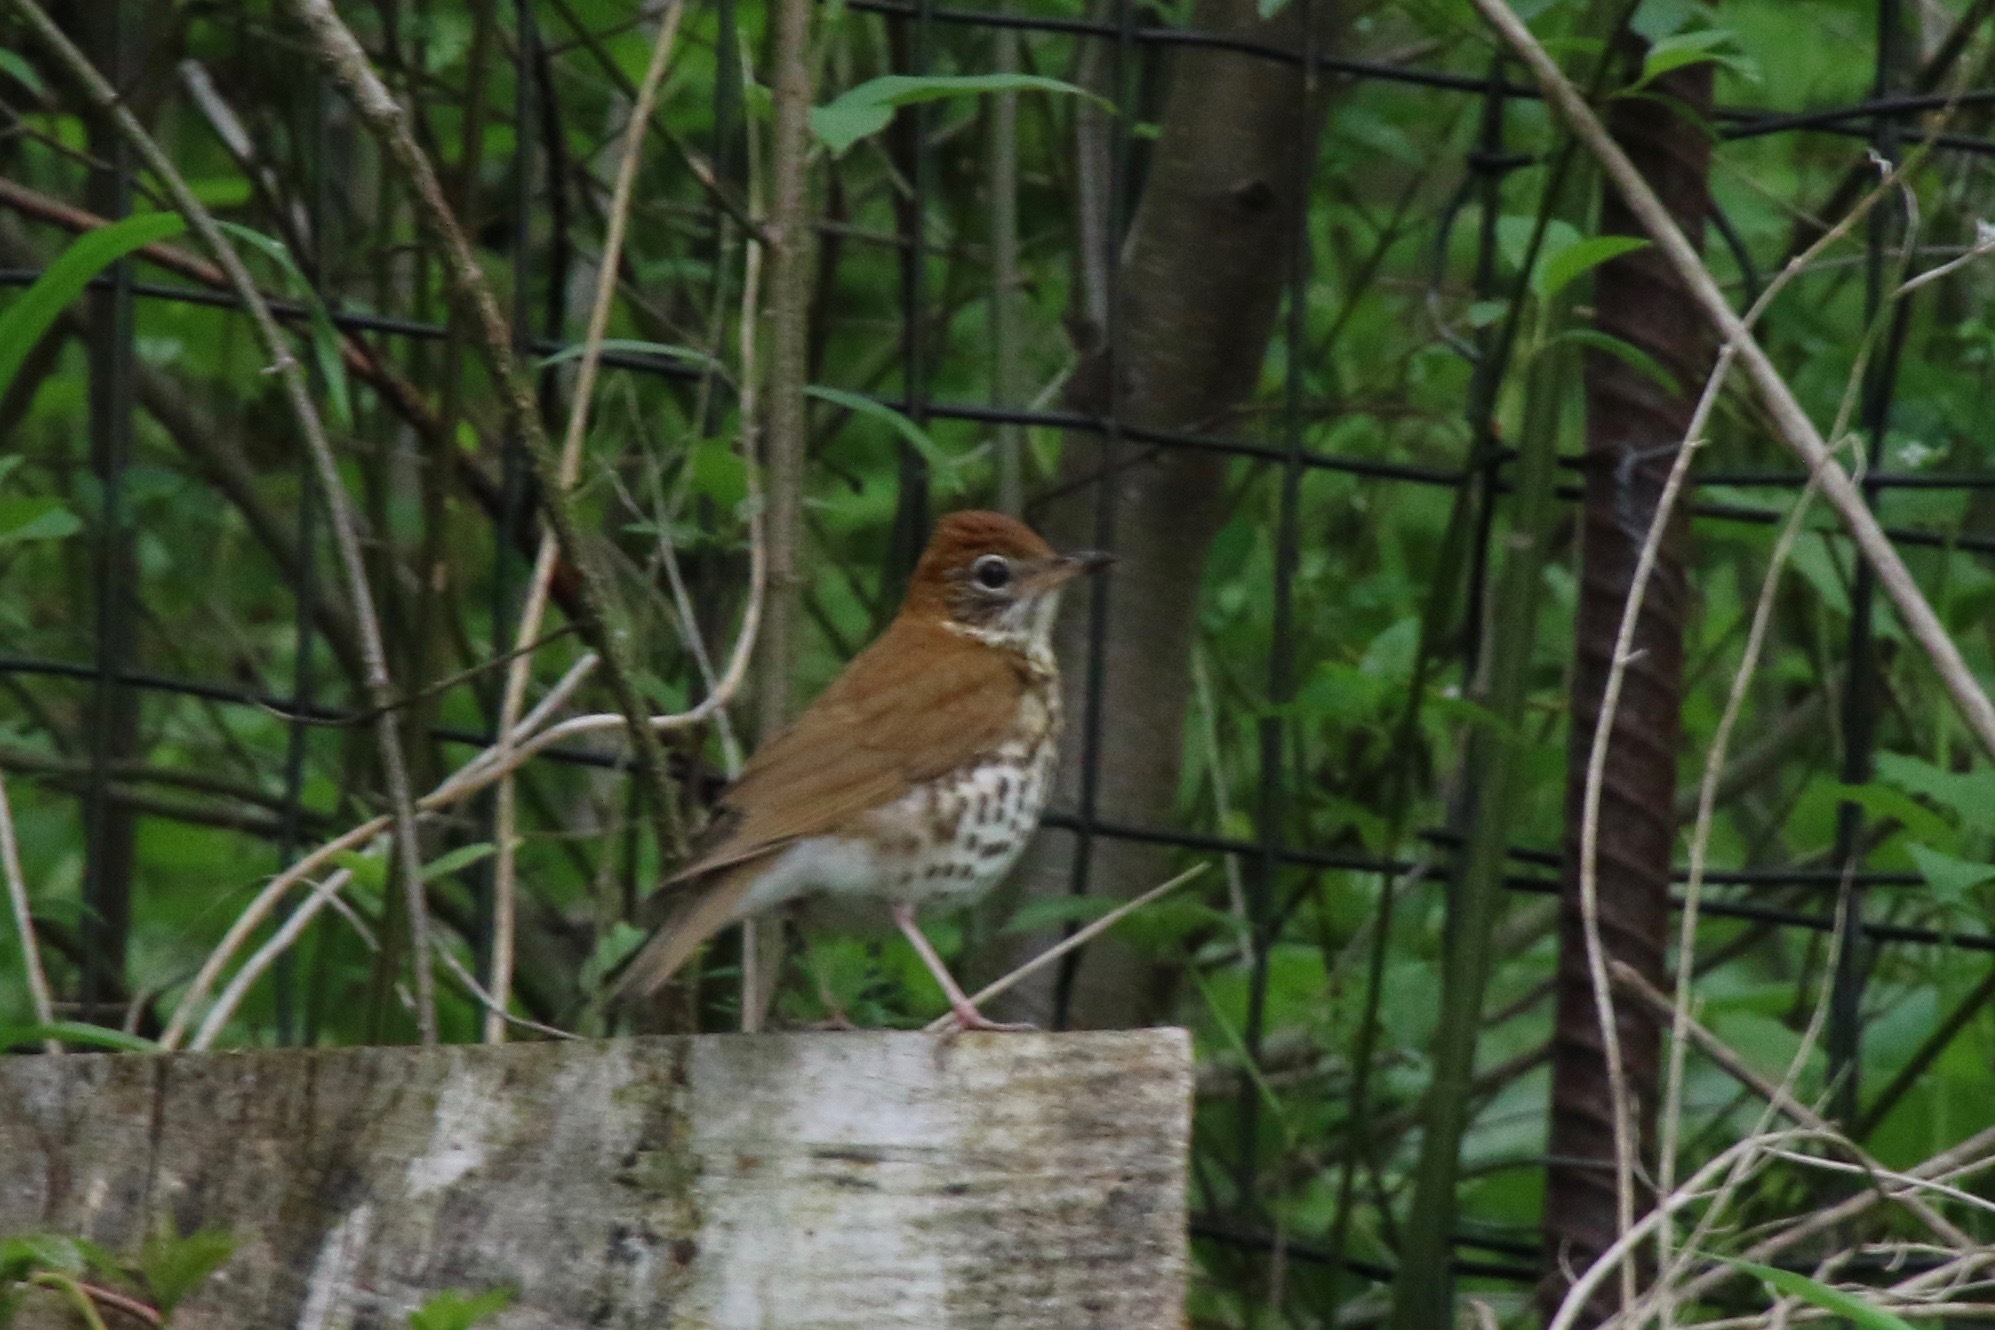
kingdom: Animalia
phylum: Chordata
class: Aves
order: Passeriformes
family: Turdidae
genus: Hylocichla
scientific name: Hylocichla mustelina
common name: Wood thrush
